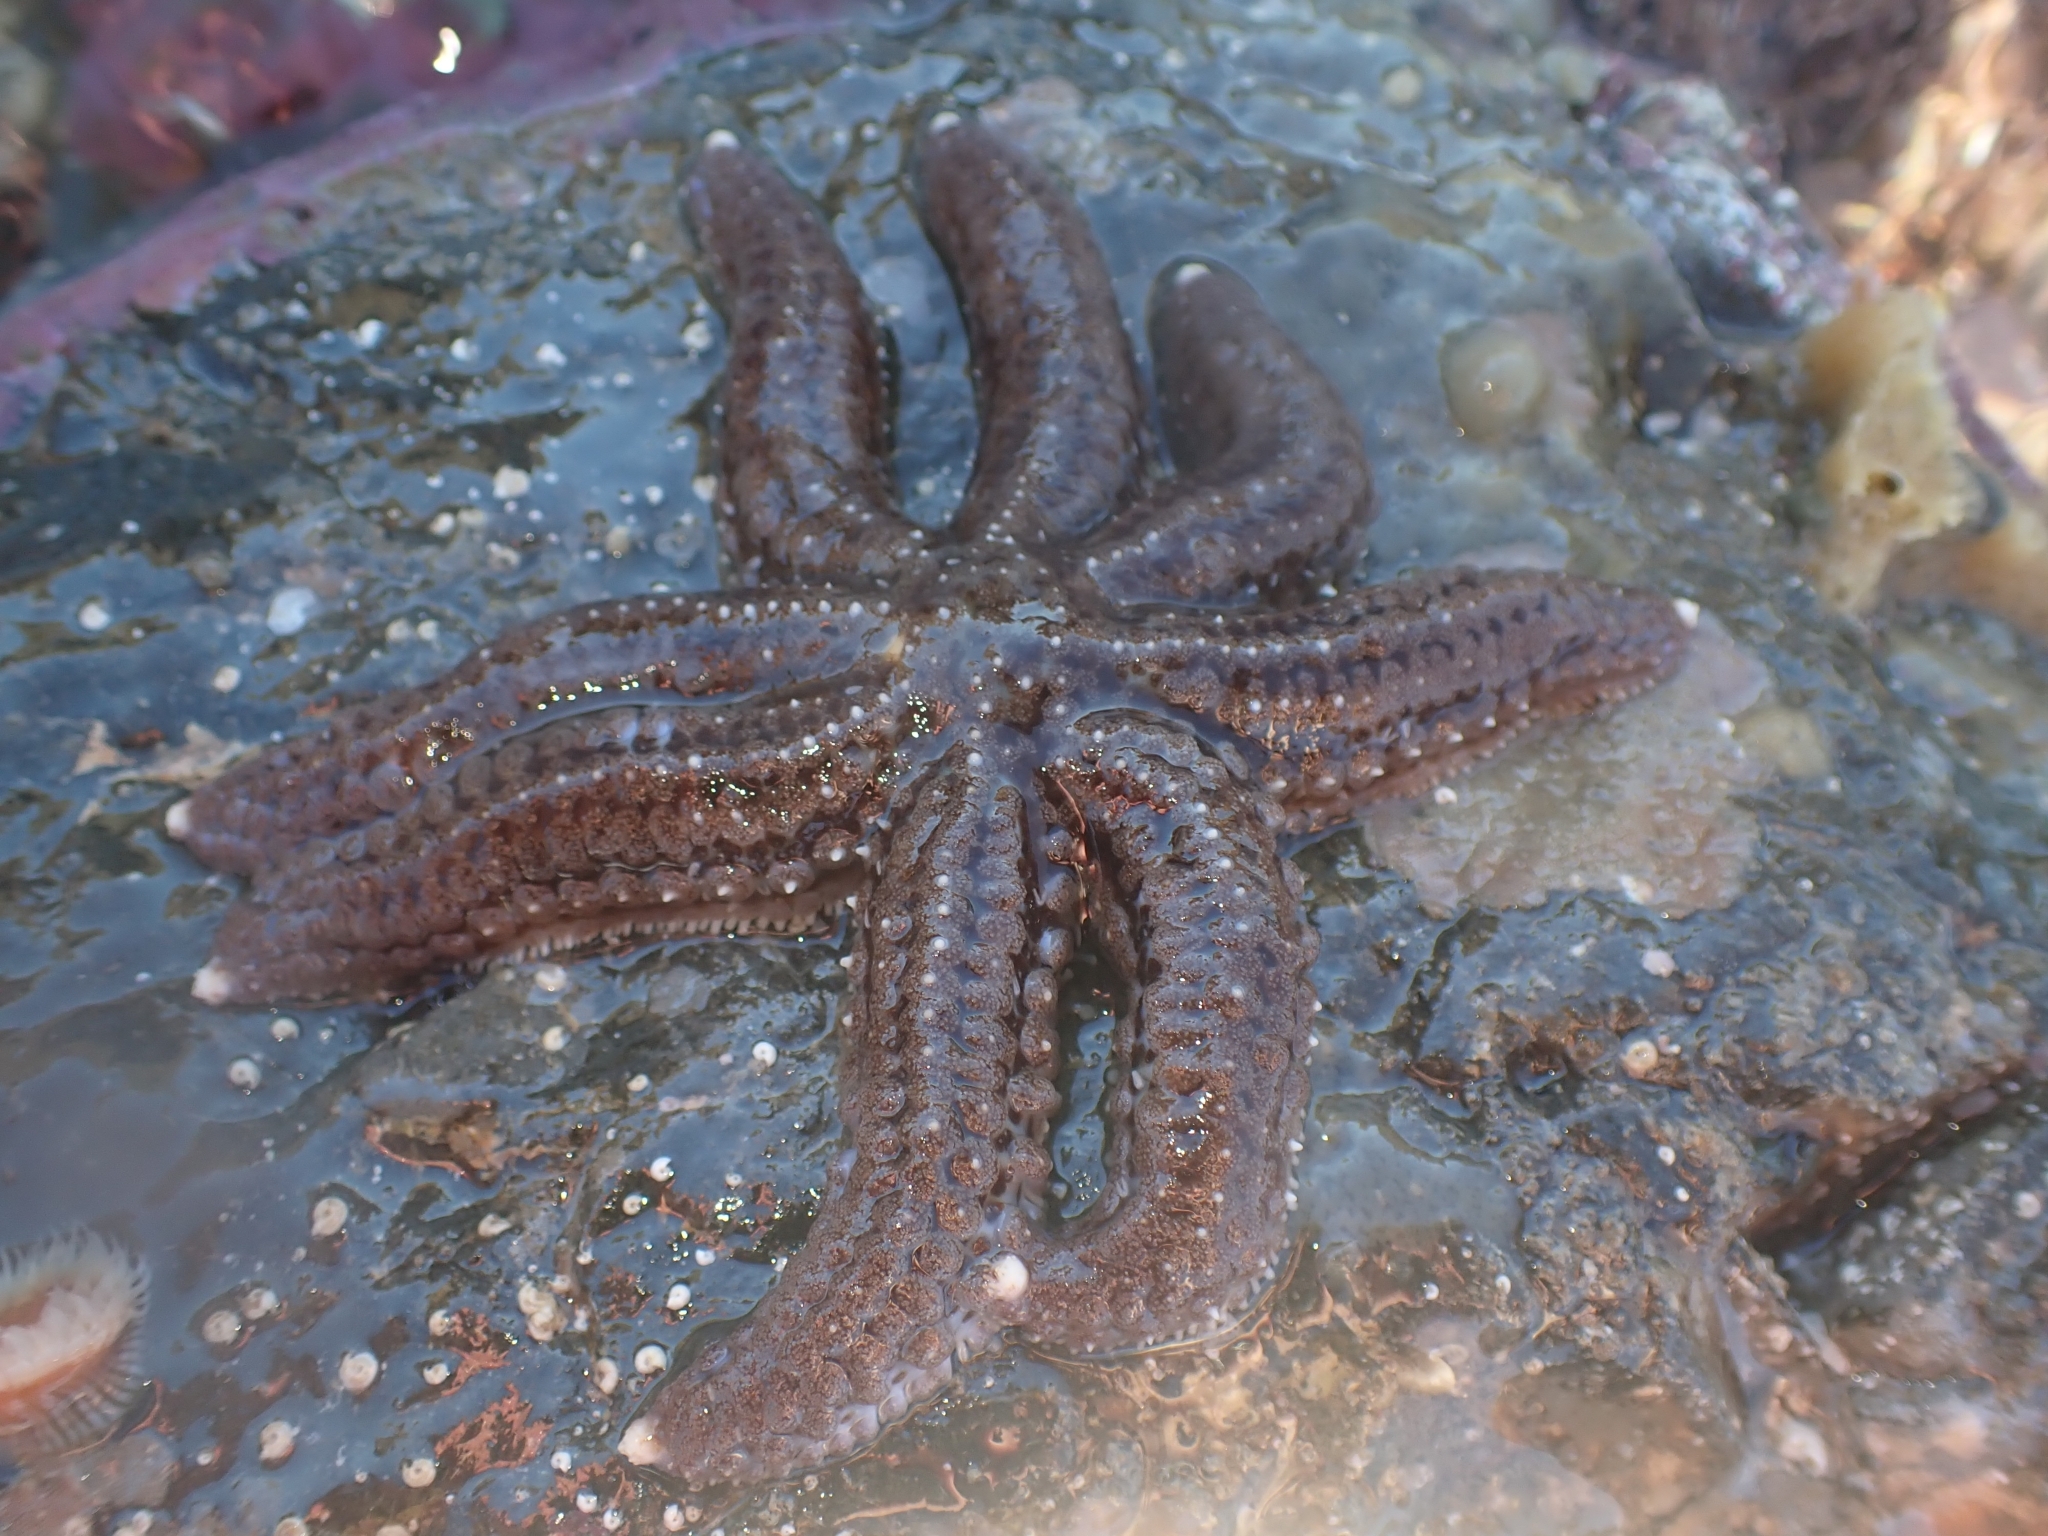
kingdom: Animalia
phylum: Echinodermata
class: Asteroidea
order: Forcipulatida
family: Asteriidae
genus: Astrostole
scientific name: Astrostole scabra
